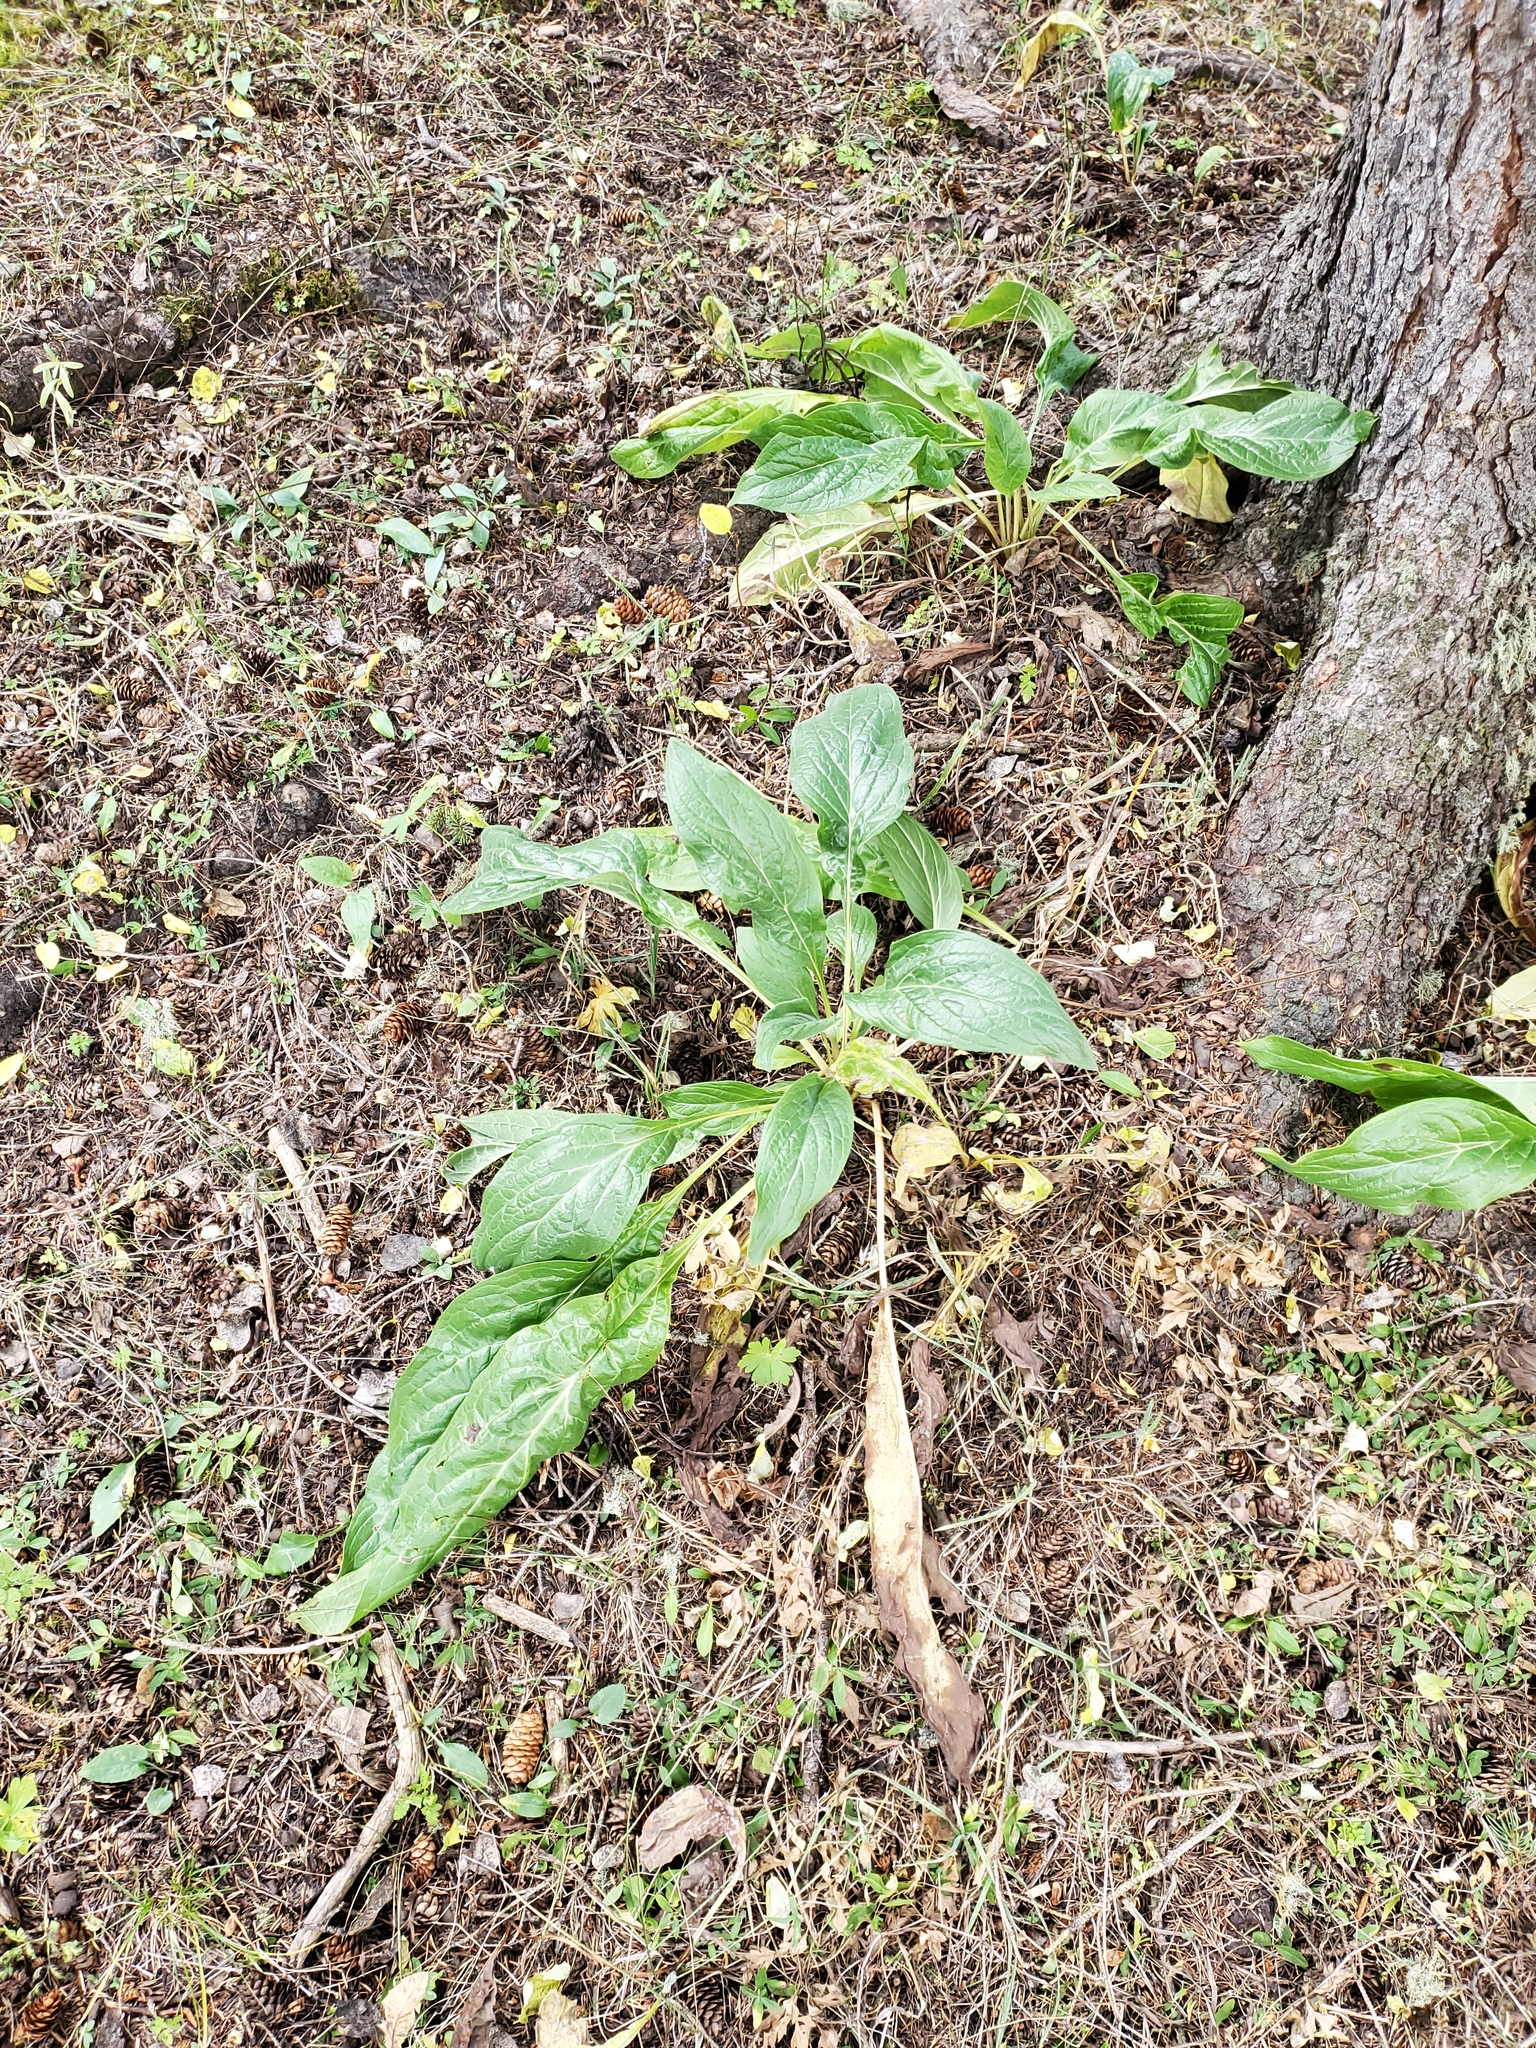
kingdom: Plantae
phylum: Tracheophyta
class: Magnoliopsida
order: Boraginales
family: Boraginaceae
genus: Cynoglossum
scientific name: Cynoglossum officinale
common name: Hound's-tongue
